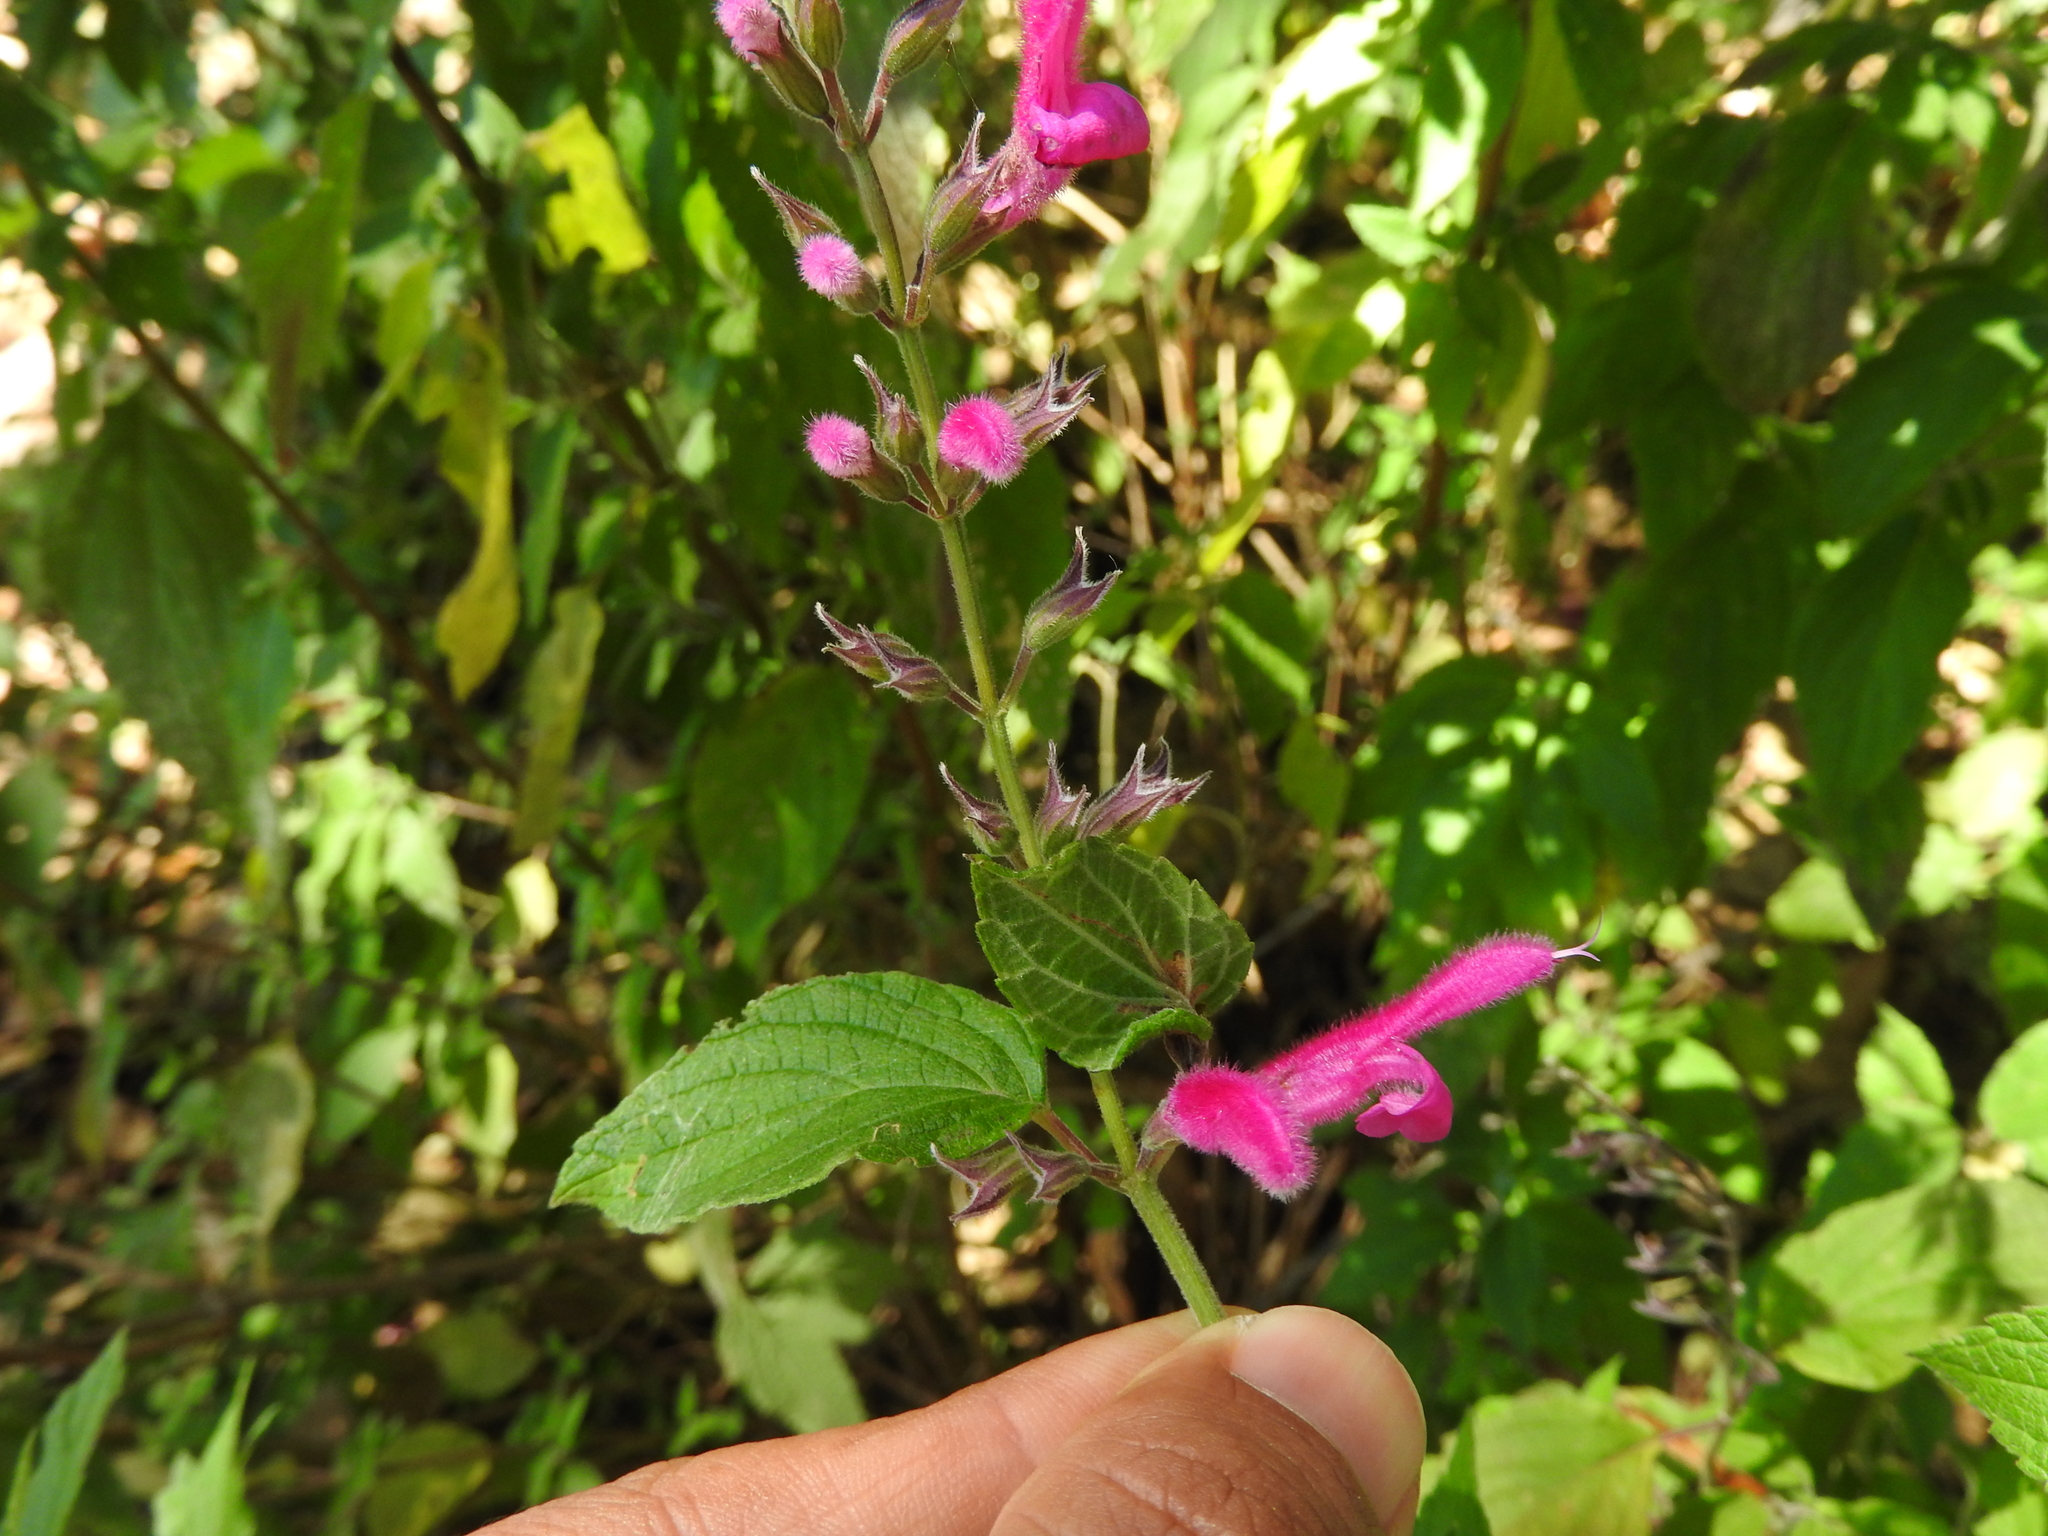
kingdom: Plantae
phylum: Tracheophyta
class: Magnoliopsida
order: Lamiales
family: Lamiaceae
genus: Salvia
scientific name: Salvia curviflora
